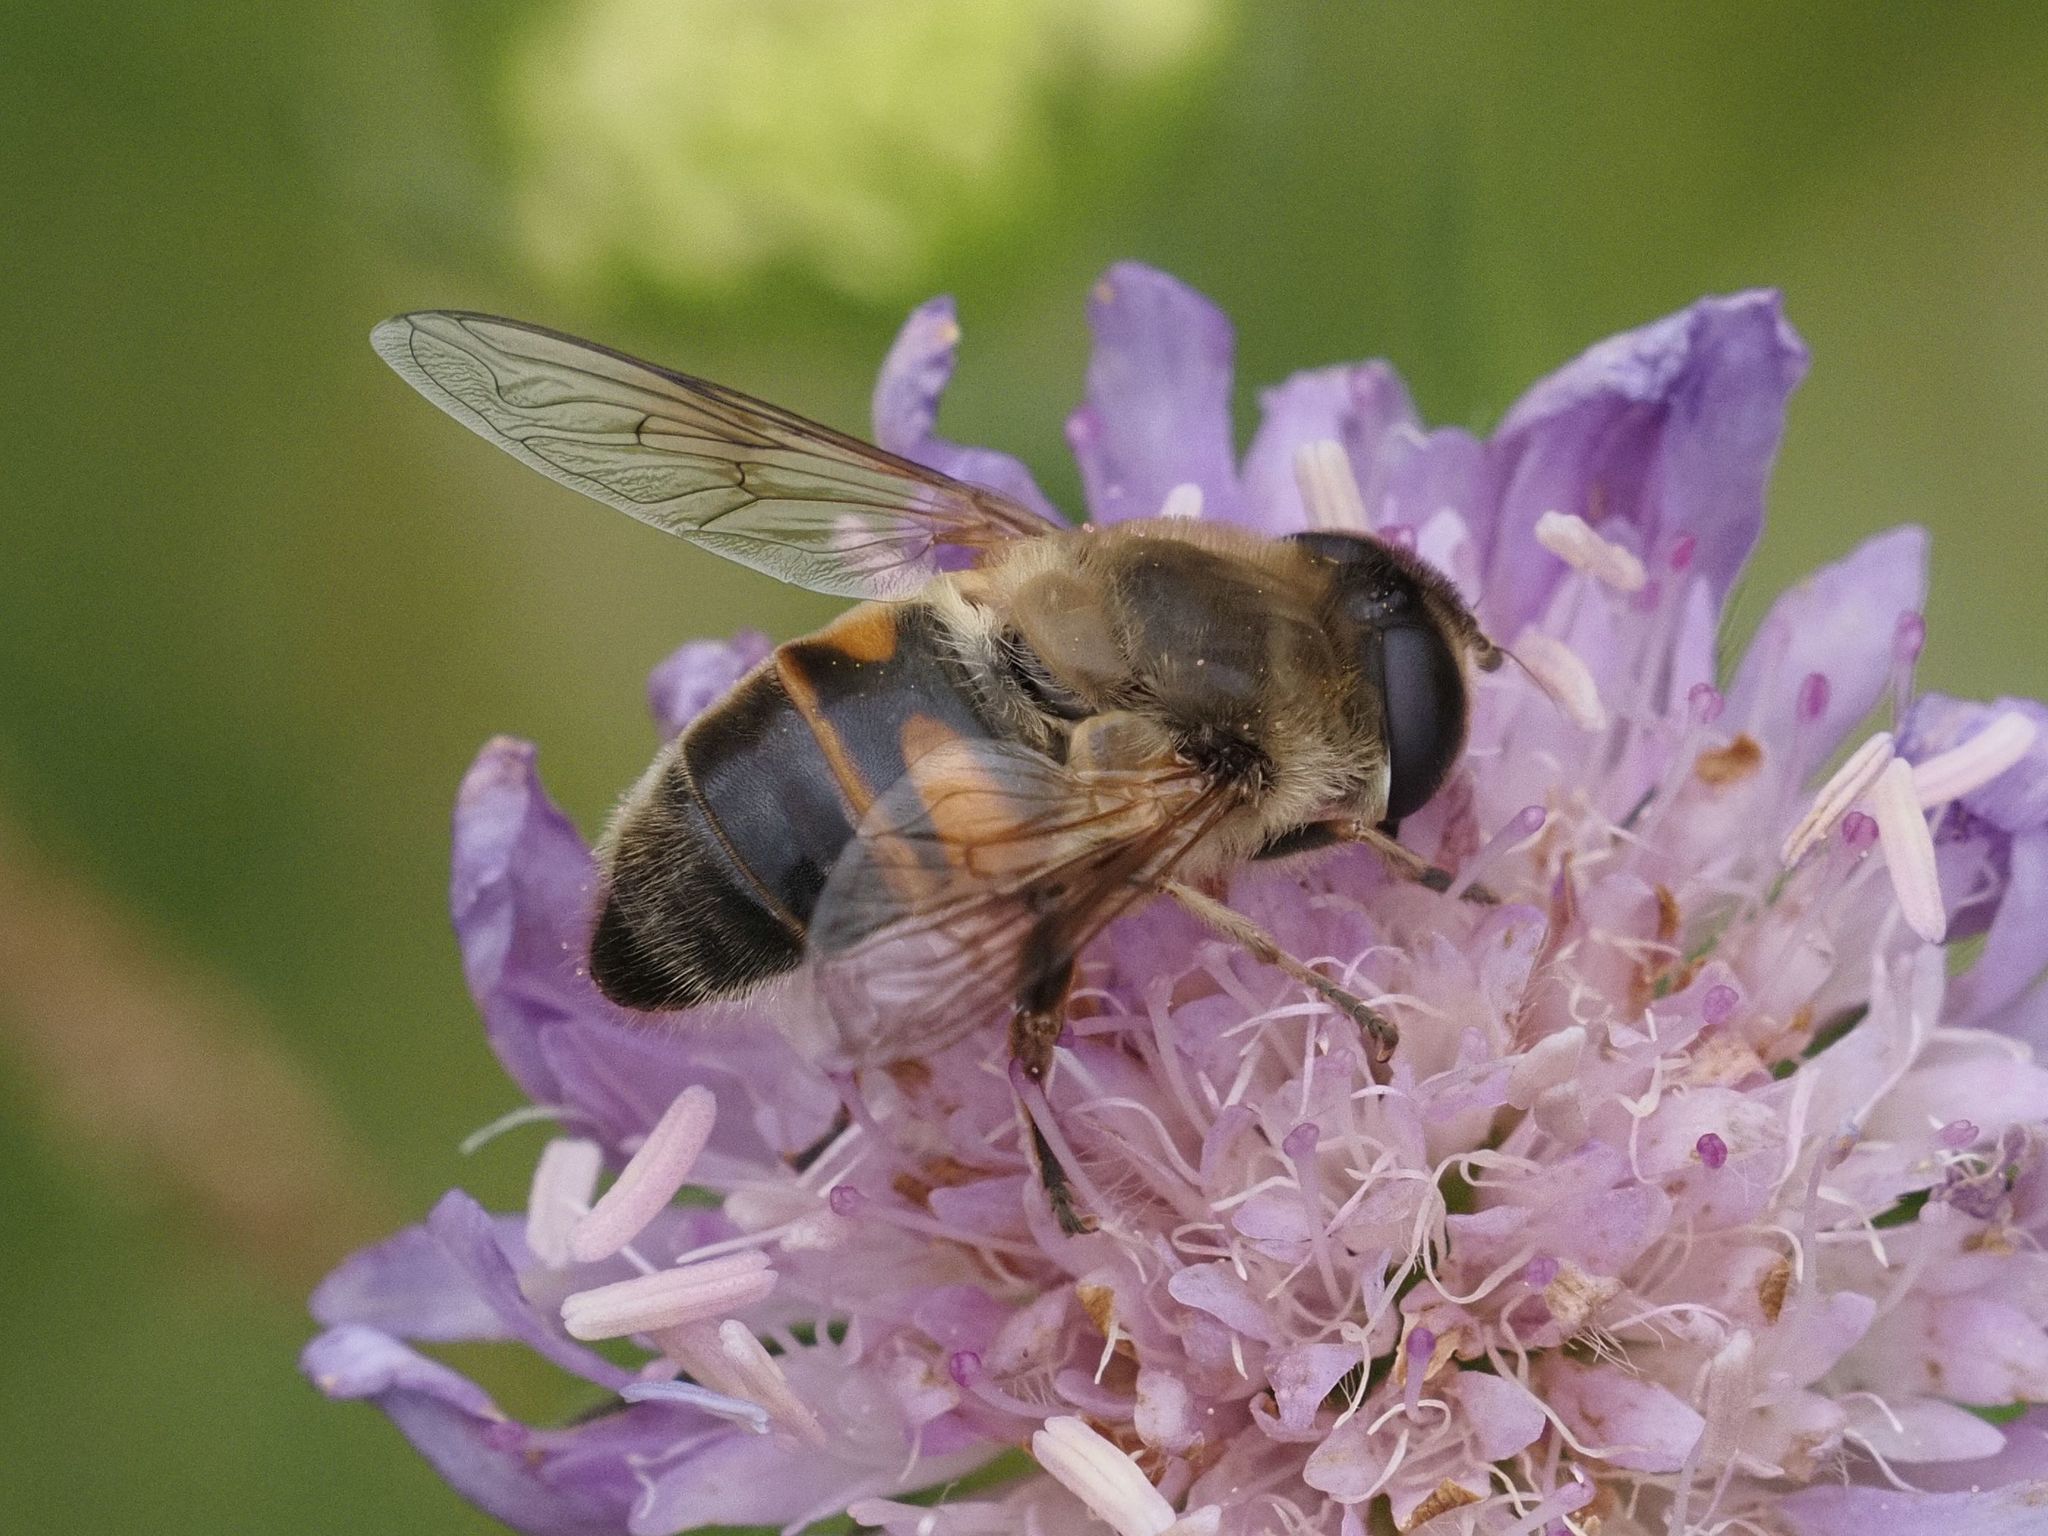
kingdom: Animalia
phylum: Arthropoda
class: Insecta
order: Diptera
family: Syrphidae
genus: Eristalis
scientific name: Eristalis tenax
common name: Drone fly
